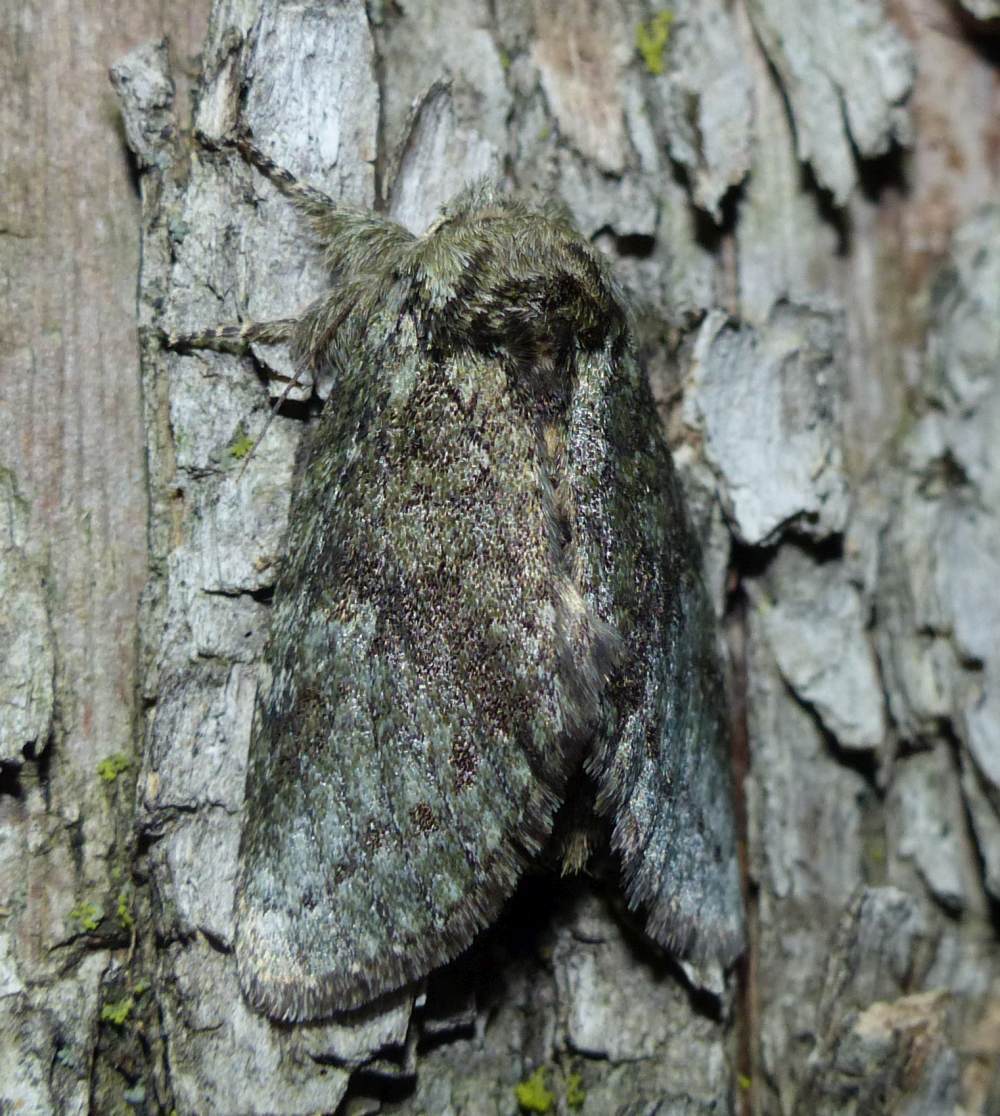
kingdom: Animalia
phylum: Arthropoda
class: Insecta
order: Lepidoptera
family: Notodontidae
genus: Disphragis
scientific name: Disphragis Cecrita guttivitta
